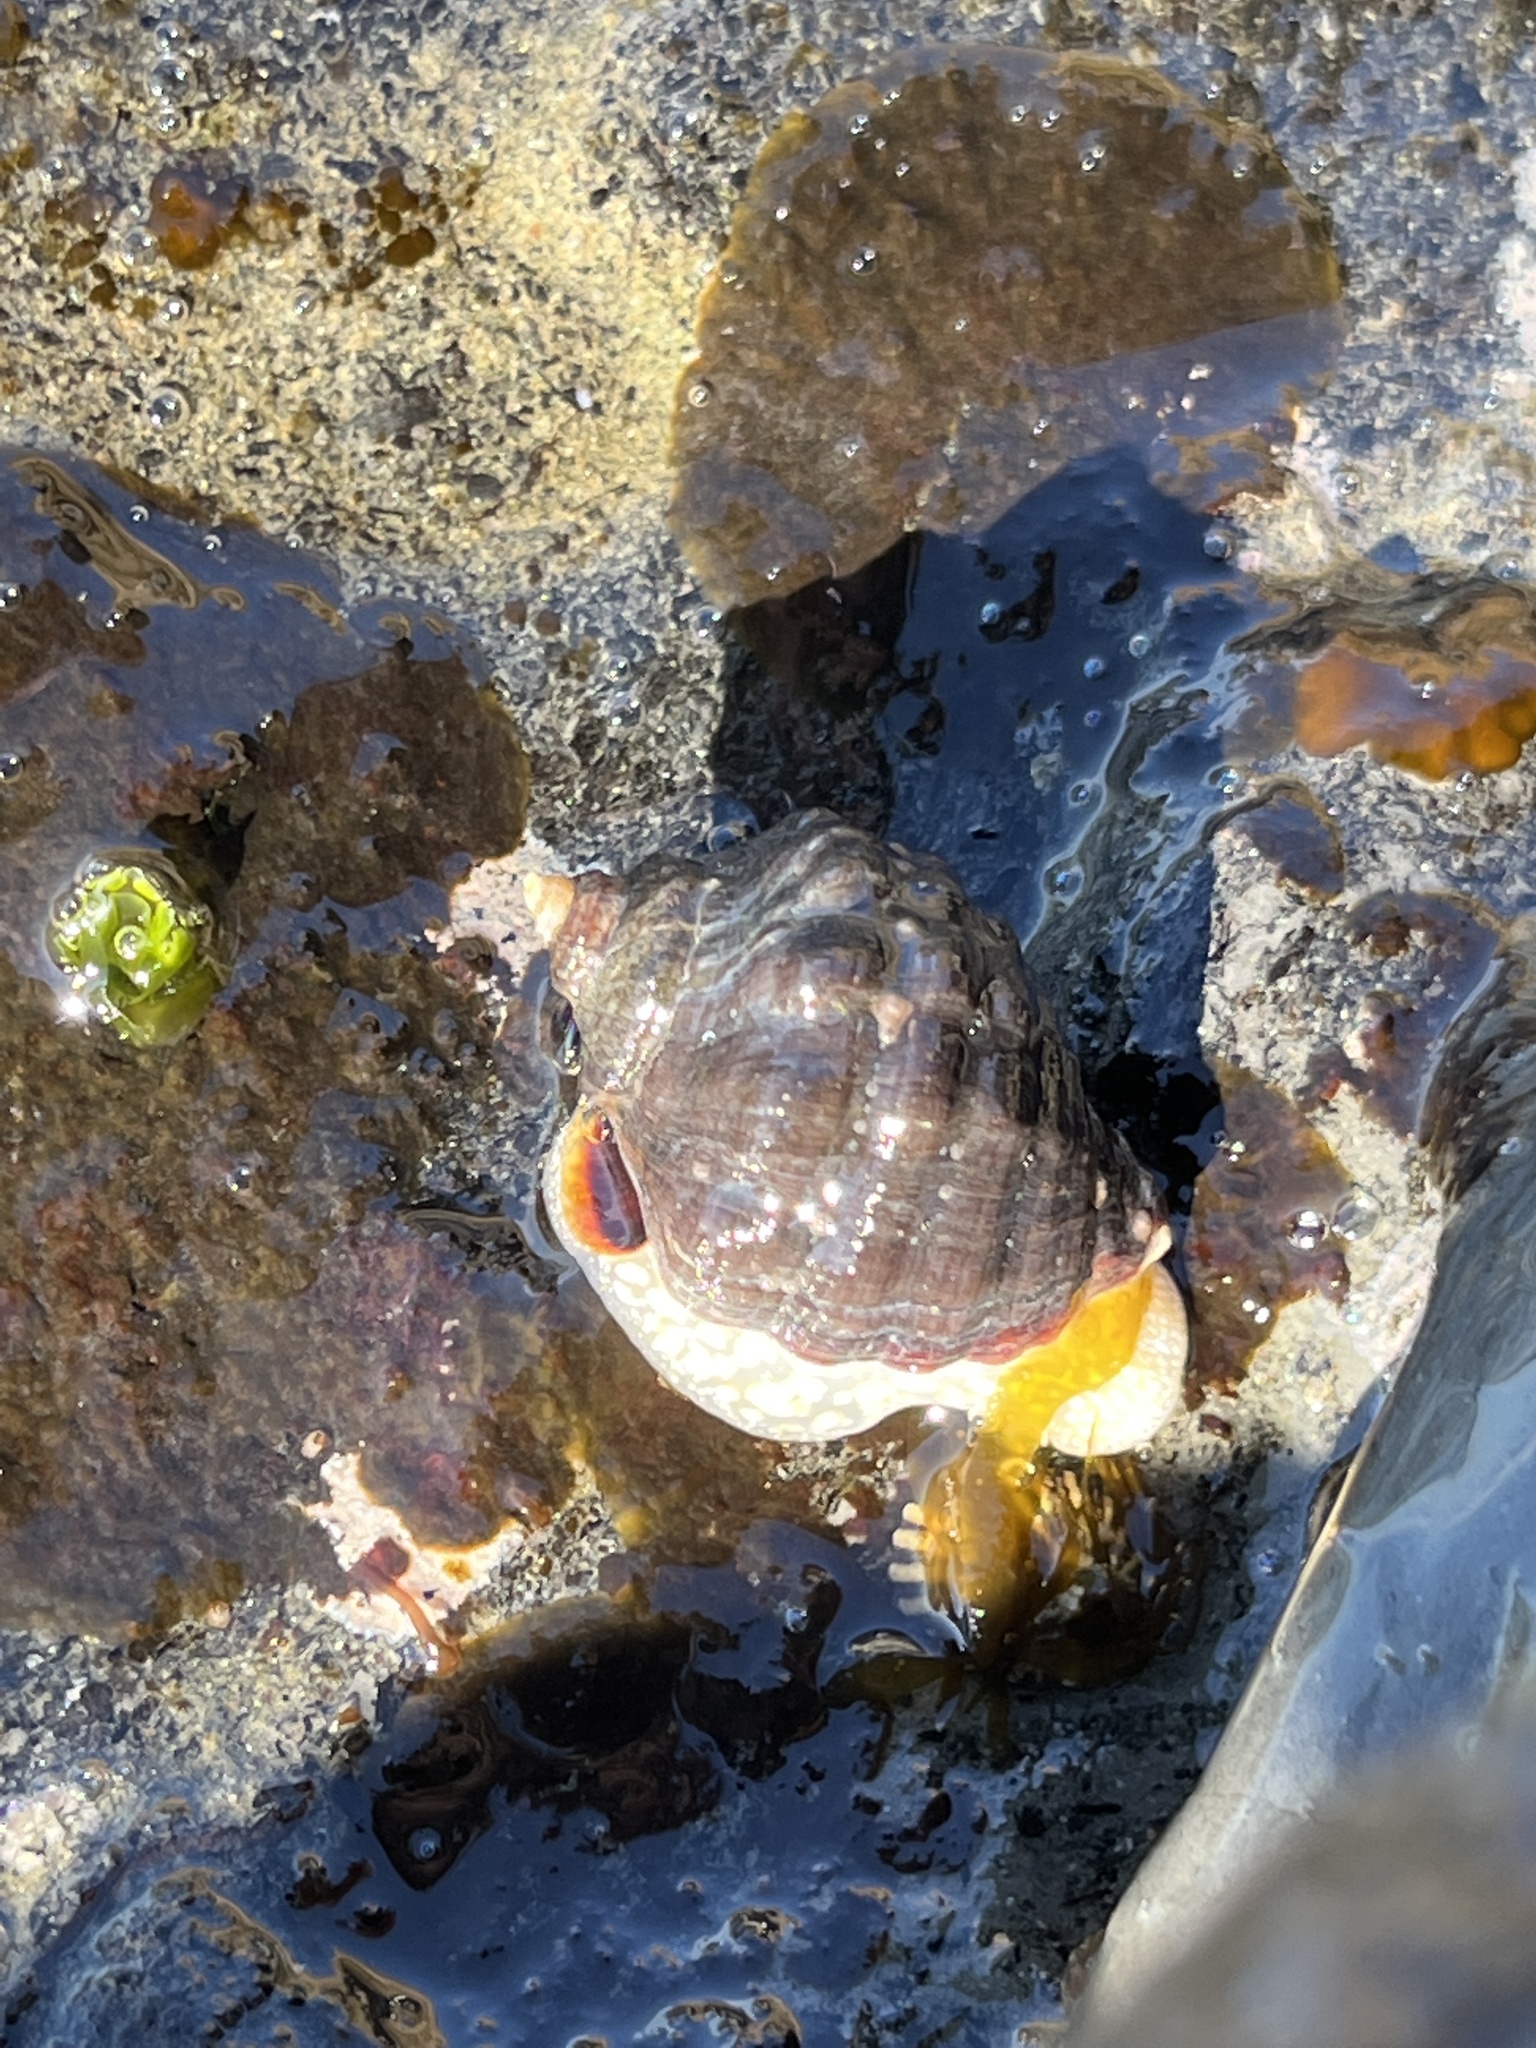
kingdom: Animalia
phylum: Mollusca
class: Gastropoda
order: Neogastropoda
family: Muricidae
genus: Mexacanthina
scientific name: Mexacanthina lugubris
